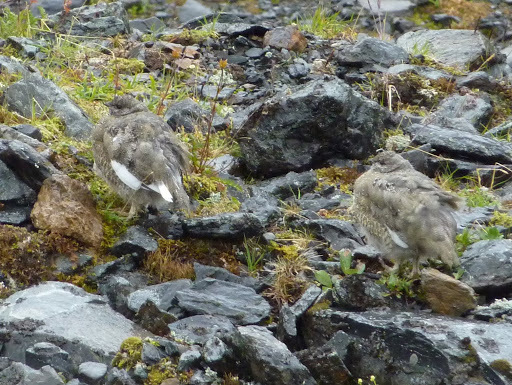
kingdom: Animalia
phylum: Chordata
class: Aves
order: Galliformes
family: Phasianidae
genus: Lagopus
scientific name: Lagopus leucura
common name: White-tailed ptarmigan
